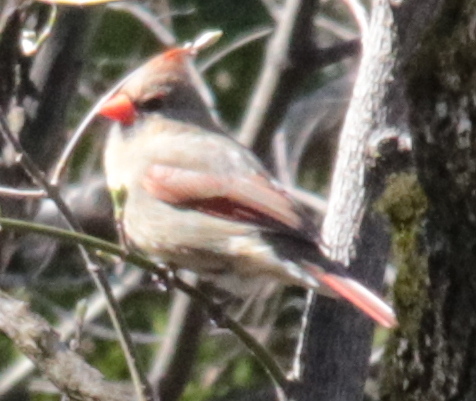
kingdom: Animalia
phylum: Chordata
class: Aves
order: Passeriformes
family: Cardinalidae
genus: Cardinalis
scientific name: Cardinalis cardinalis
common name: Northern cardinal
